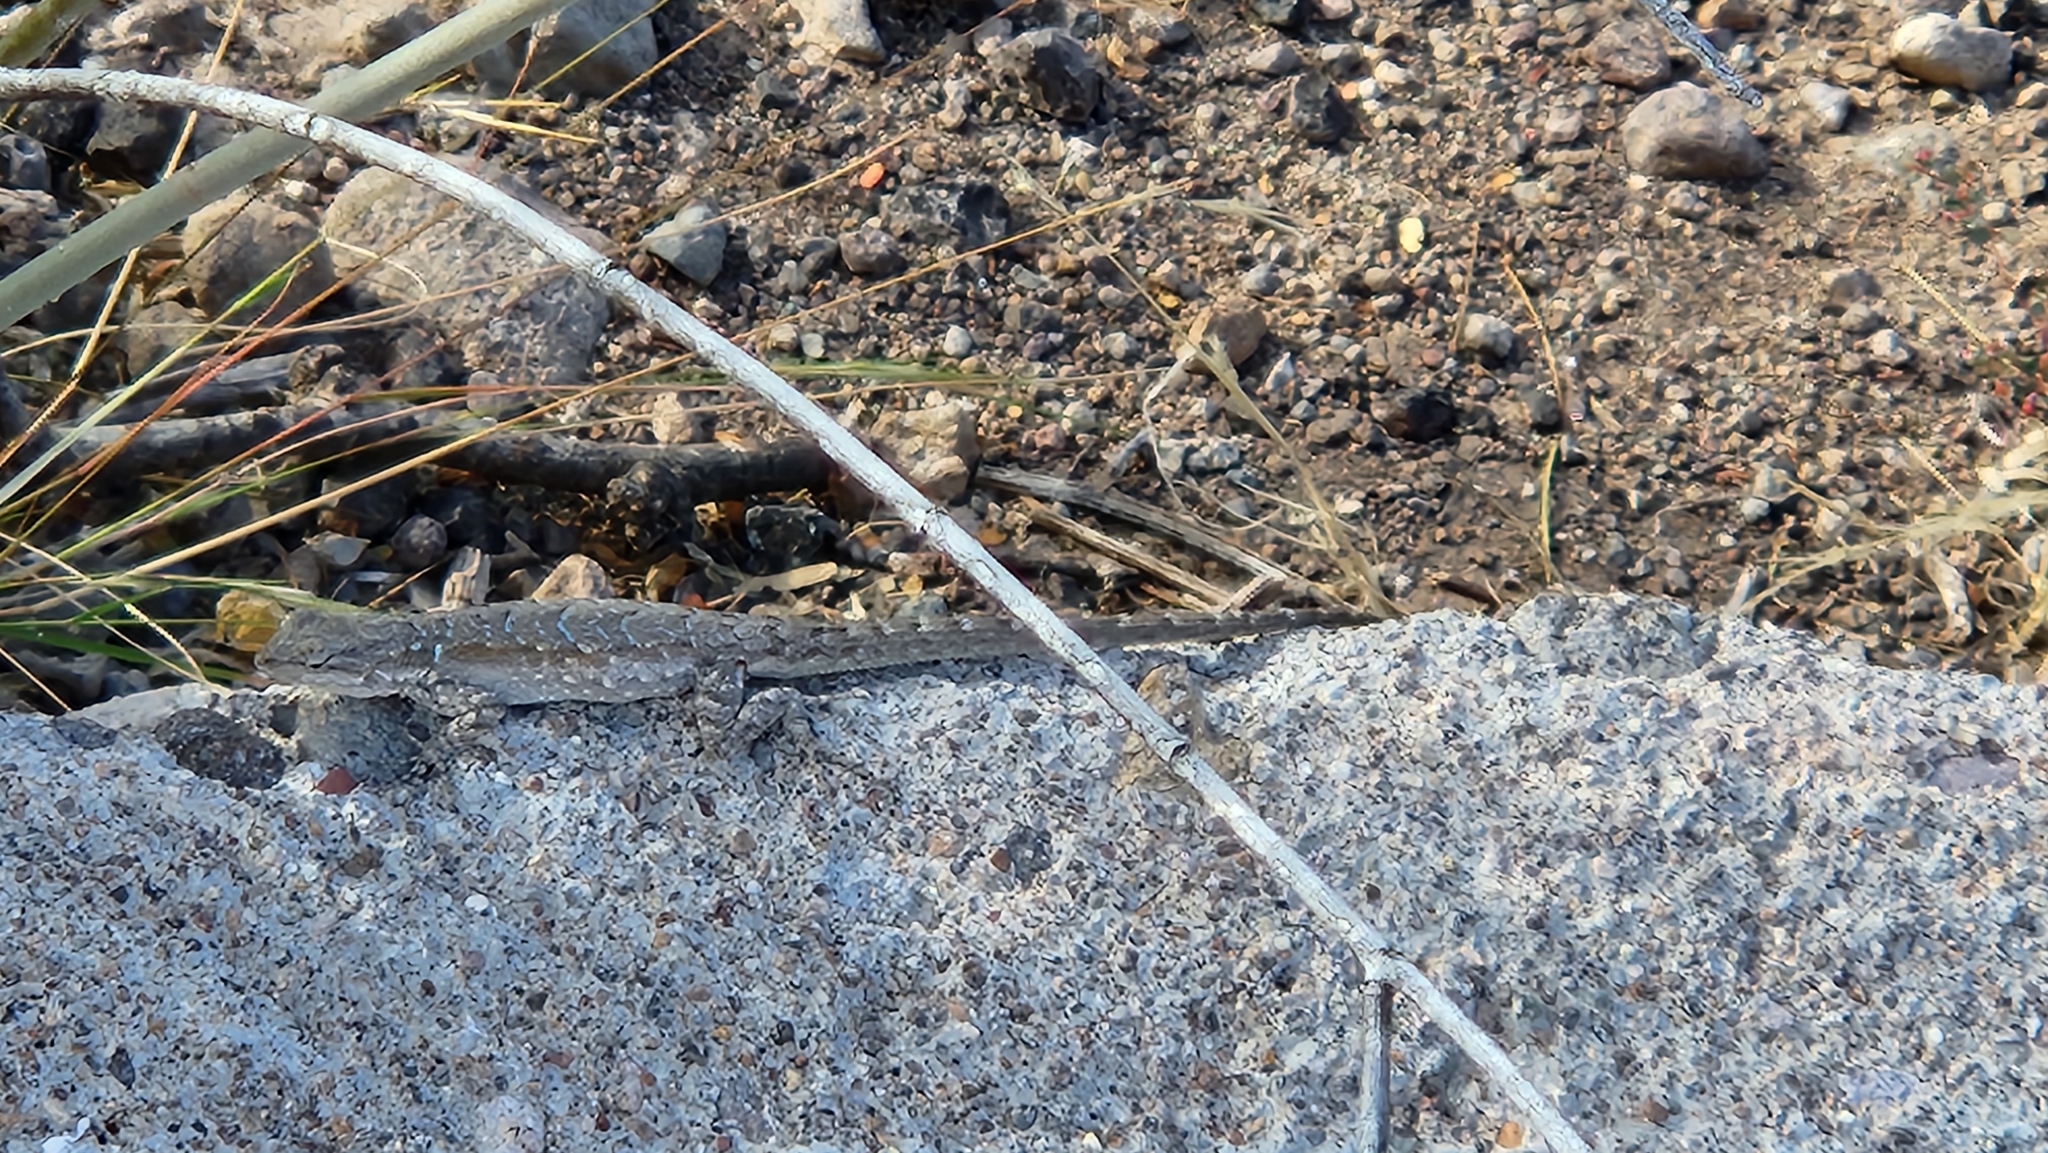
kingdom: Animalia
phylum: Chordata
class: Squamata
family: Phrynosomatidae
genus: Urosaurus
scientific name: Urosaurus nigricauda
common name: Baja california brush lizard
